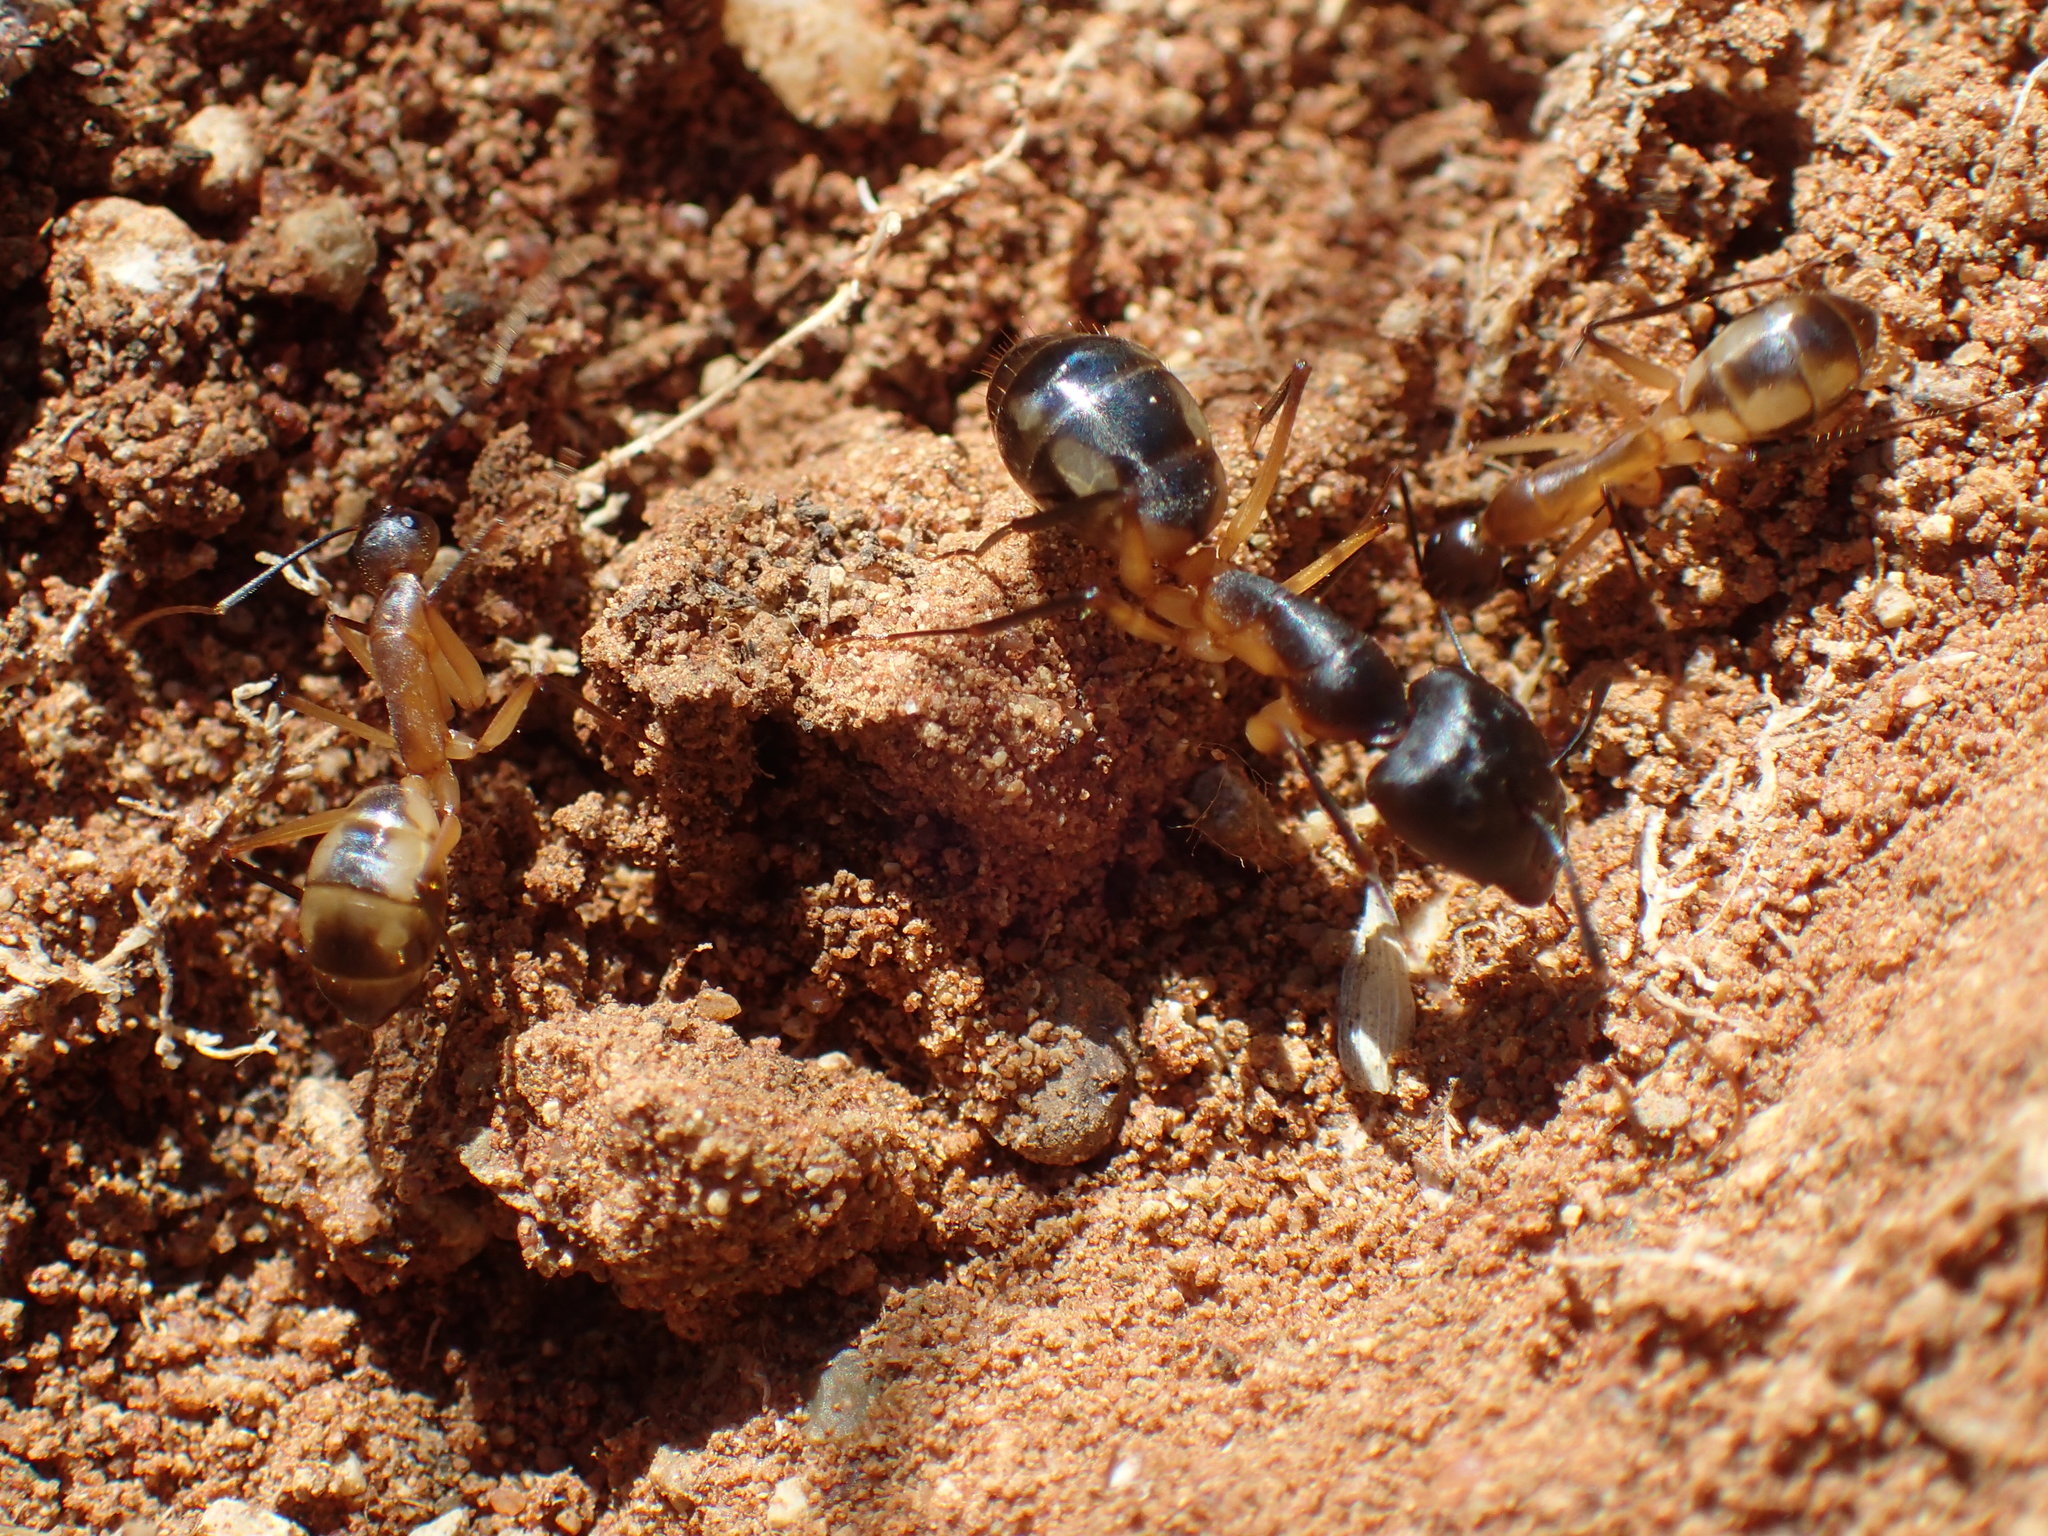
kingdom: Animalia
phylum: Arthropoda
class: Insecta
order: Hymenoptera
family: Formicidae
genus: Camponotus
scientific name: Camponotus maculatus
